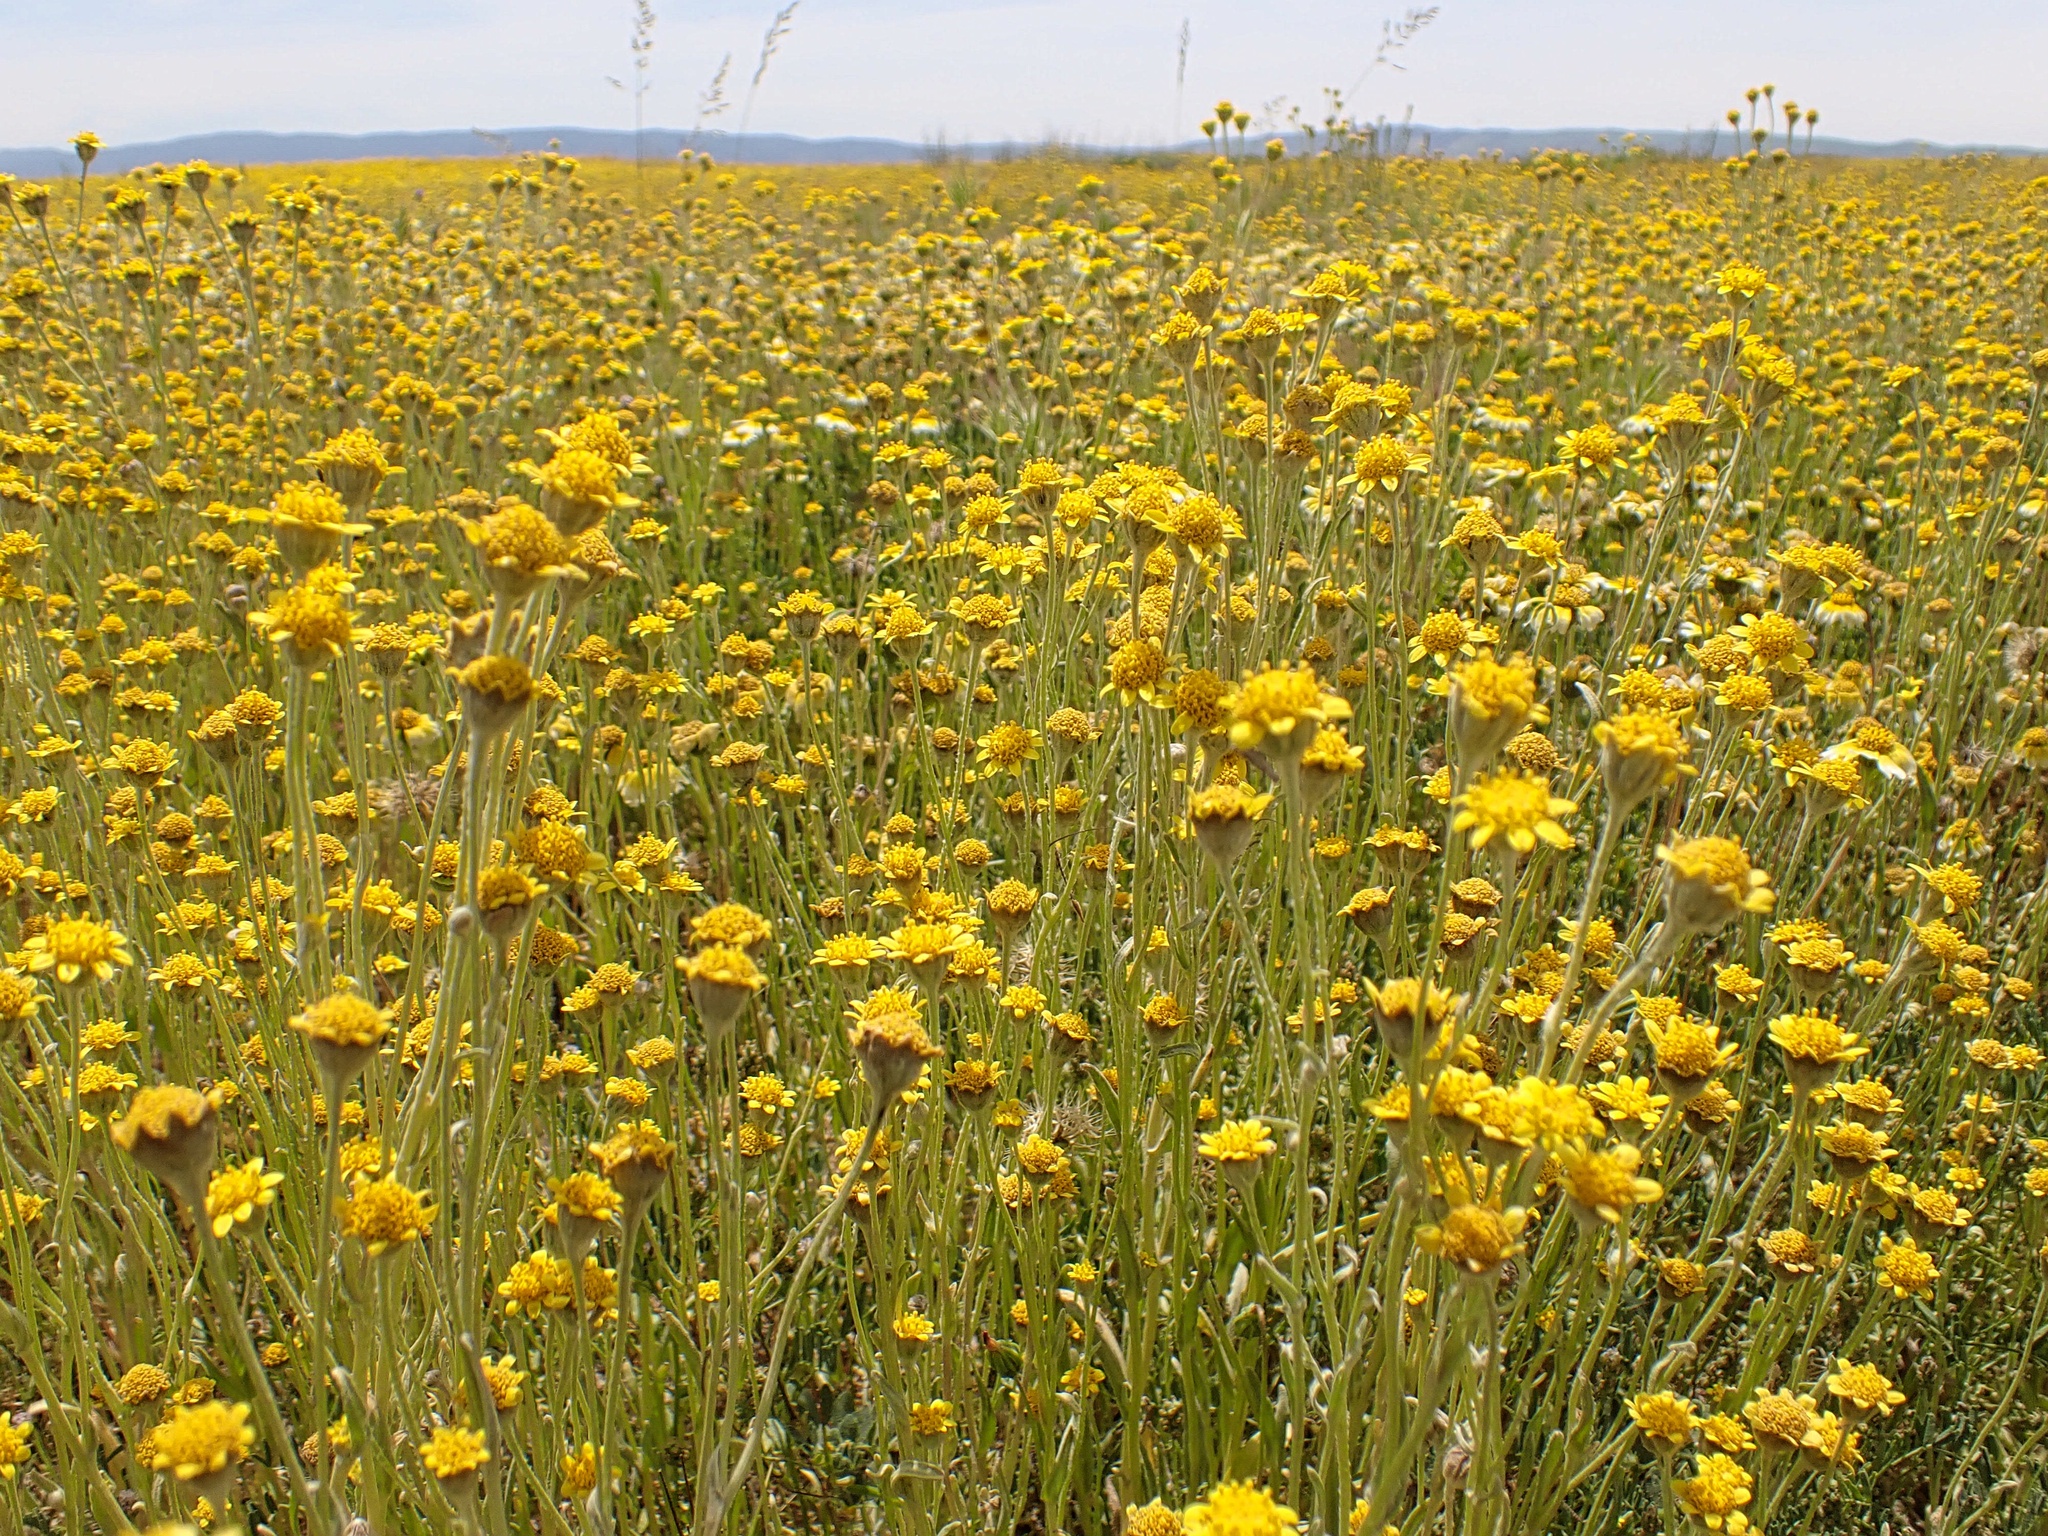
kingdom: Plantae
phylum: Tracheophyta
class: Magnoliopsida
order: Asterales
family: Asteraceae
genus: Monolopia
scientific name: Monolopia stricta
